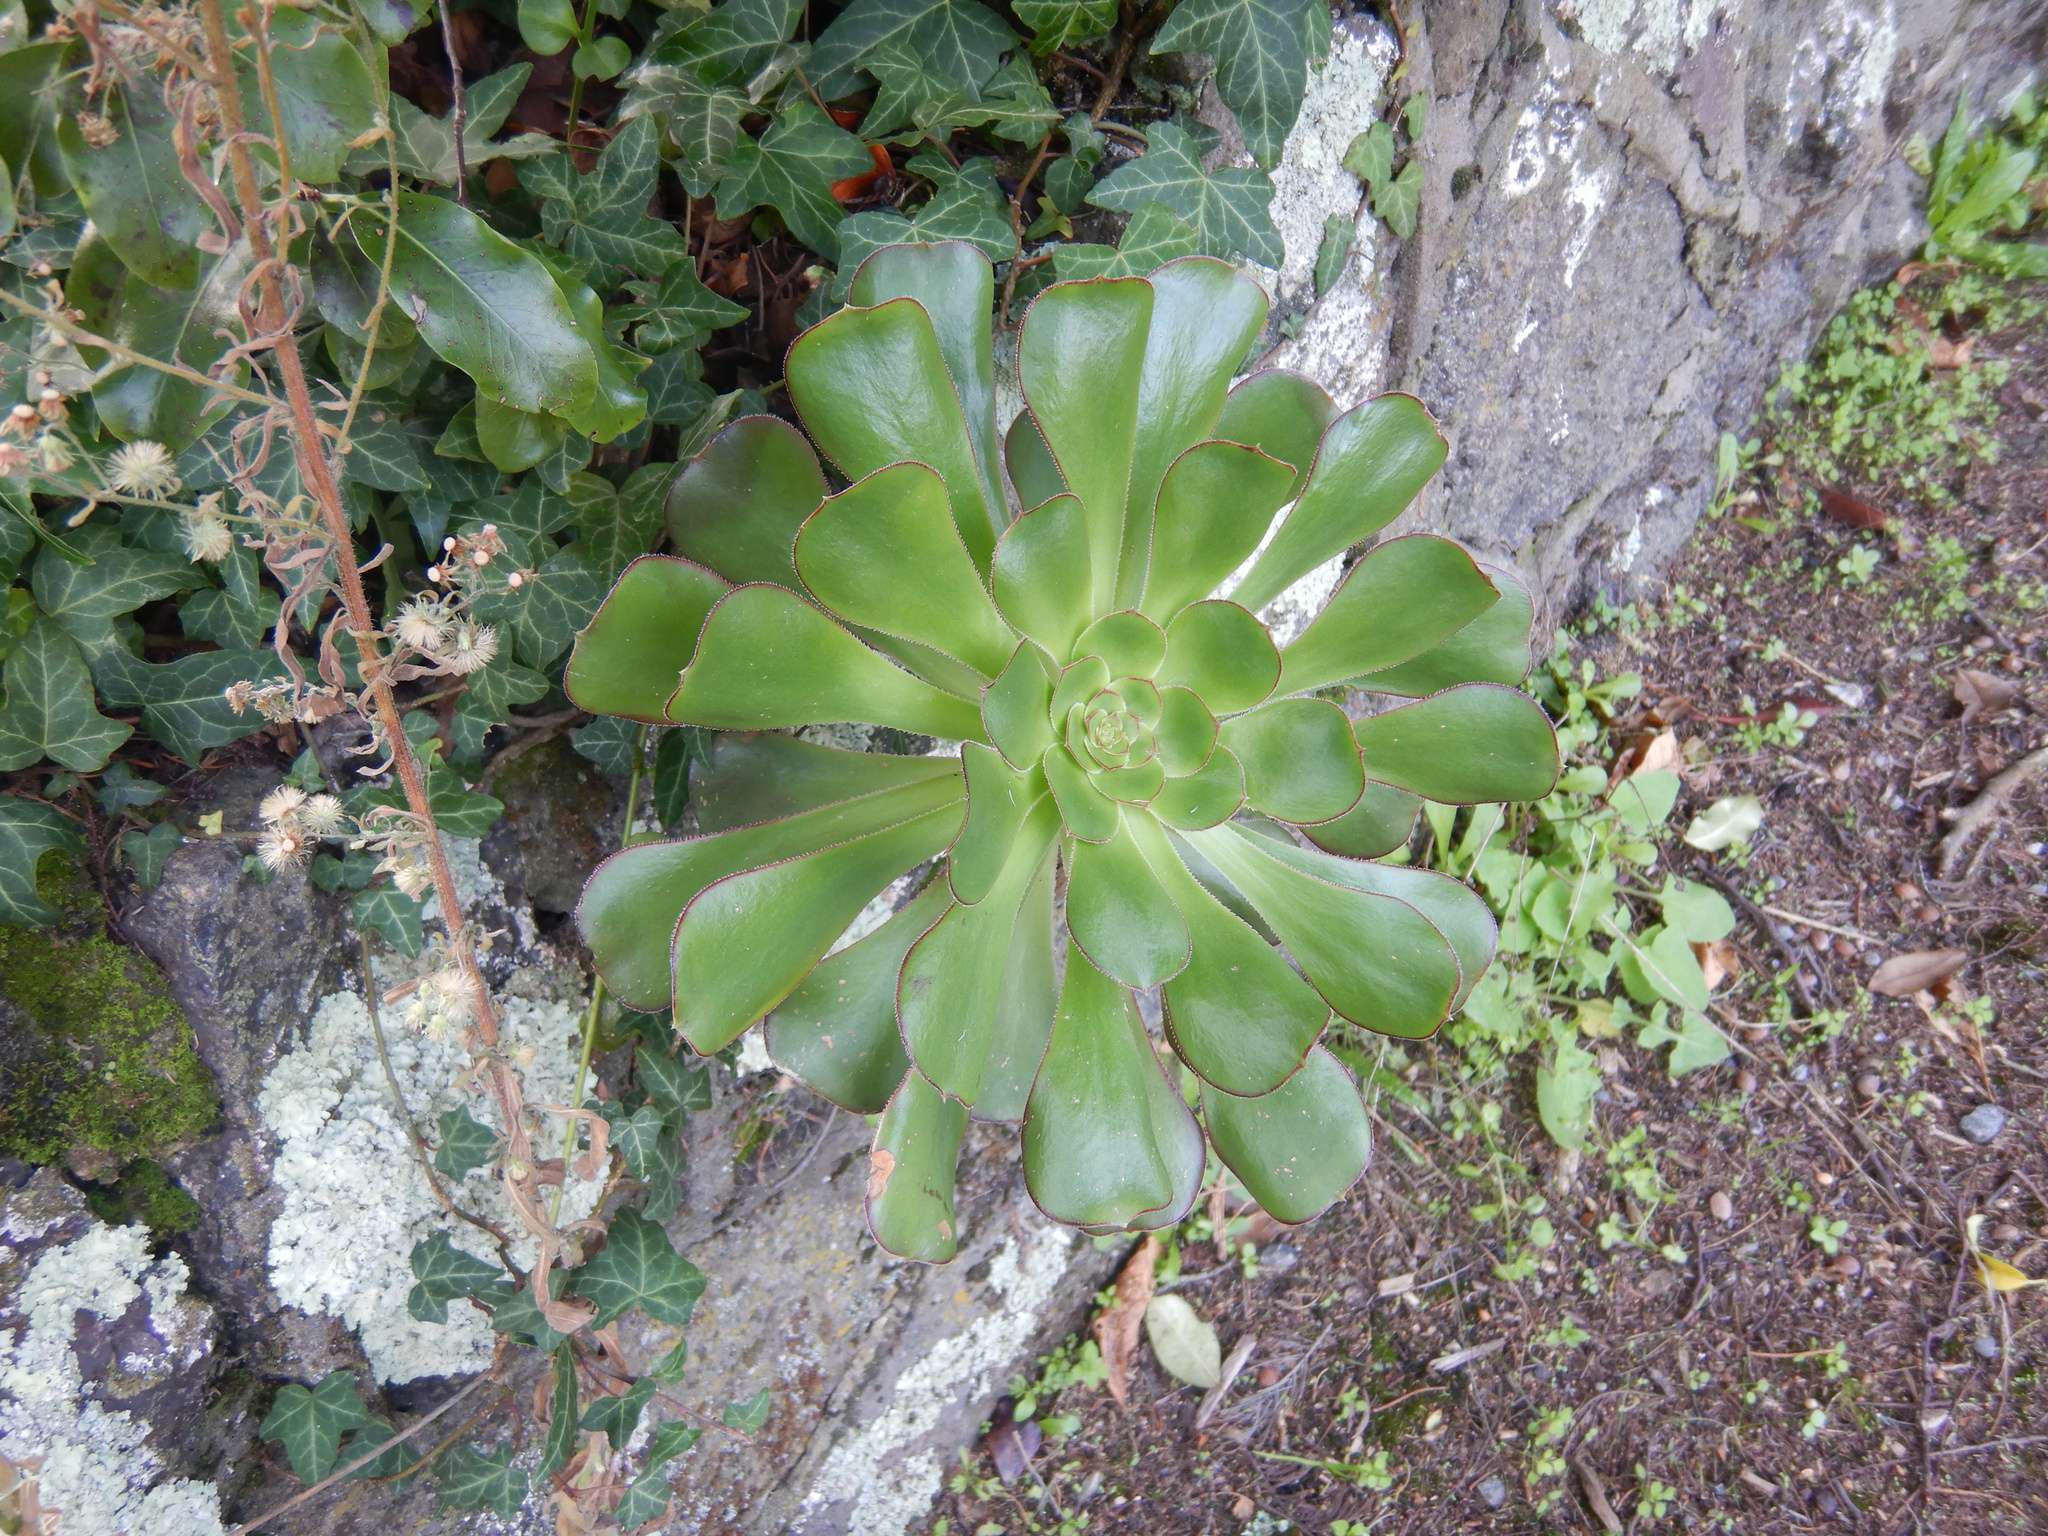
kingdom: Plantae
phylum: Tracheophyta
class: Magnoliopsida
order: Saxifragales
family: Crassulaceae
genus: Aeonium
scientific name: Aeonium arboreum
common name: Tree aeonium
